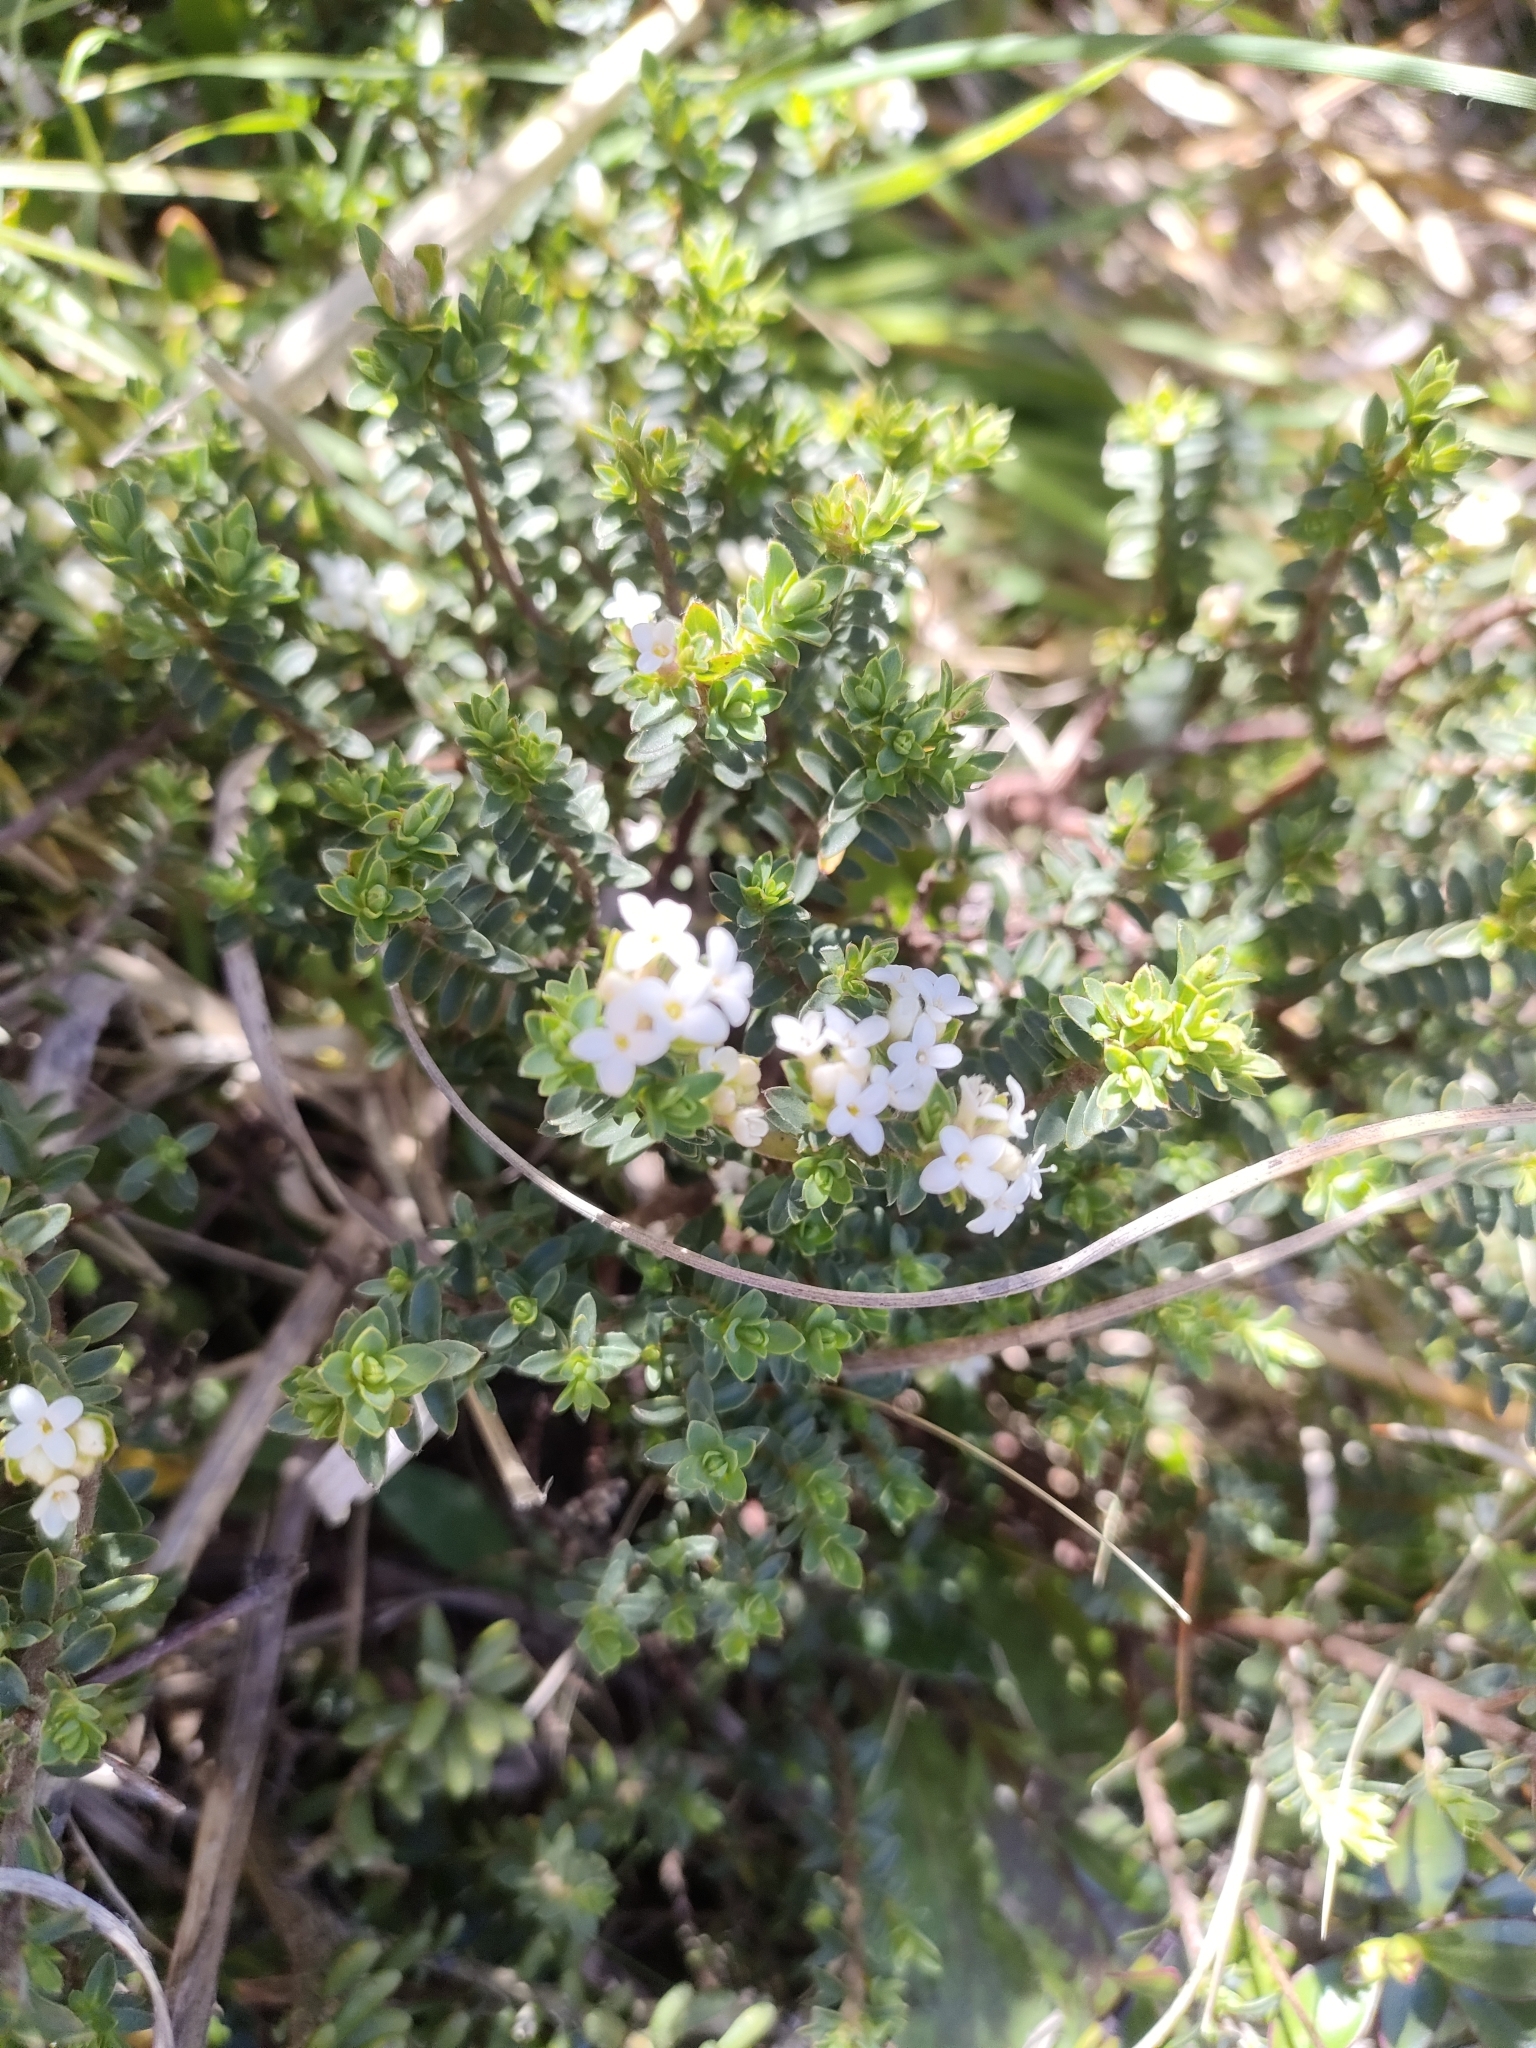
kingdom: Plantae
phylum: Tracheophyta
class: Magnoliopsida
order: Malvales
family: Thymelaeaceae
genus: Pimelea
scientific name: Pimelea prostrata
